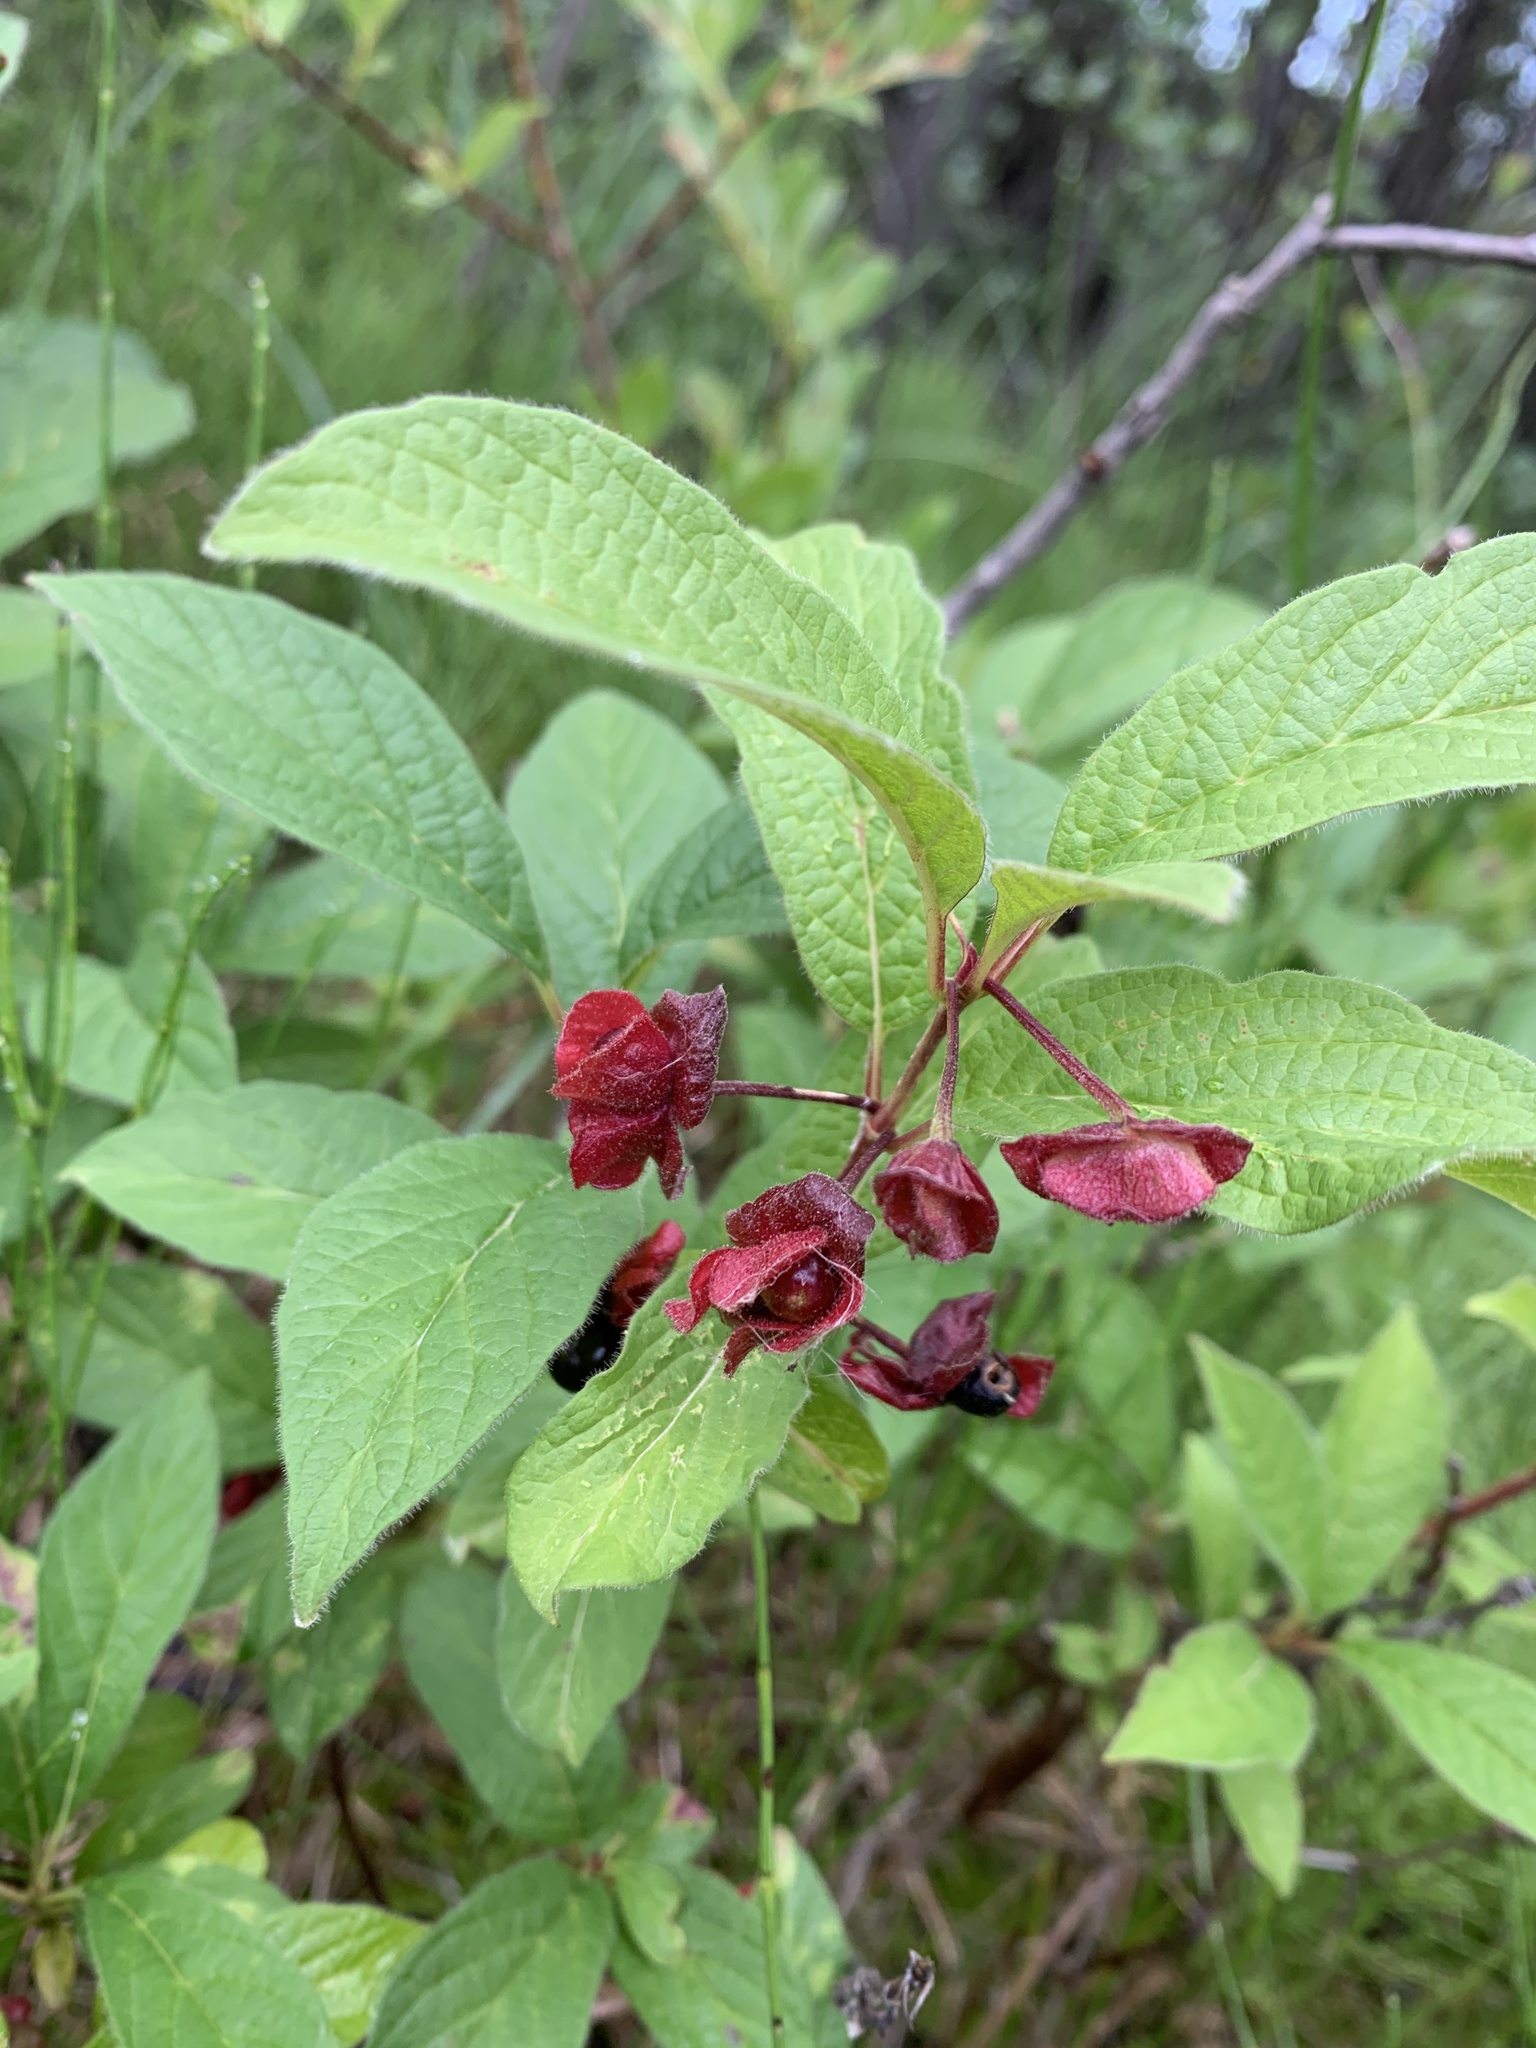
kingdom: Plantae
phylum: Tracheophyta
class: Magnoliopsida
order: Dipsacales
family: Caprifoliaceae
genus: Lonicera
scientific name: Lonicera involucrata
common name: Californian honeysuckle
